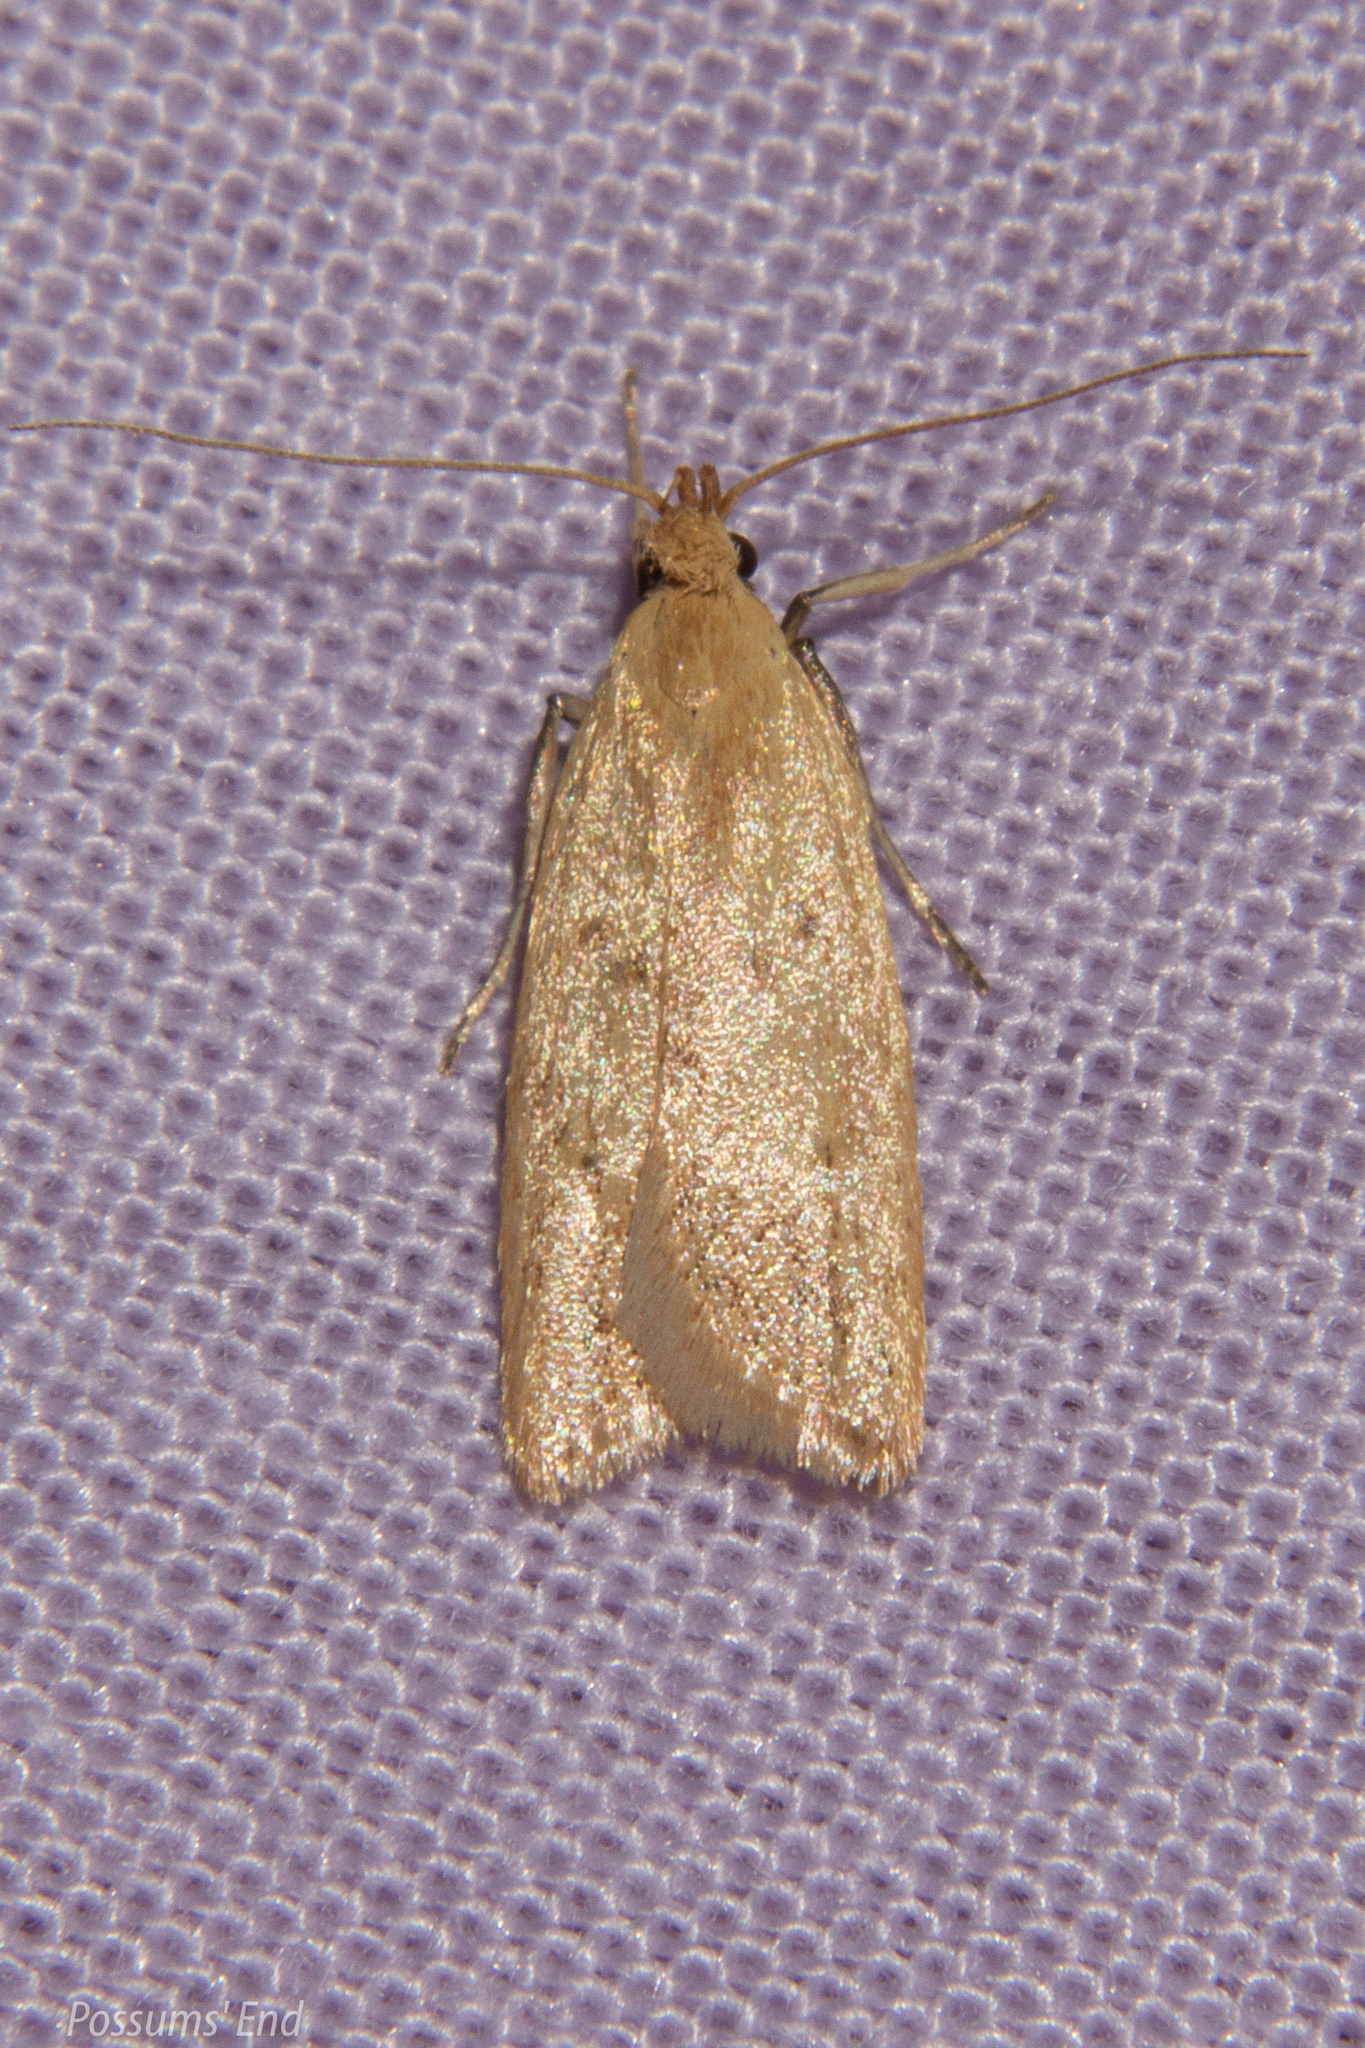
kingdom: Animalia
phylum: Arthropoda
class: Insecta
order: Lepidoptera
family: Oecophoridae
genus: Gymnobathra
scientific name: Gymnobathra sarcoxantha
